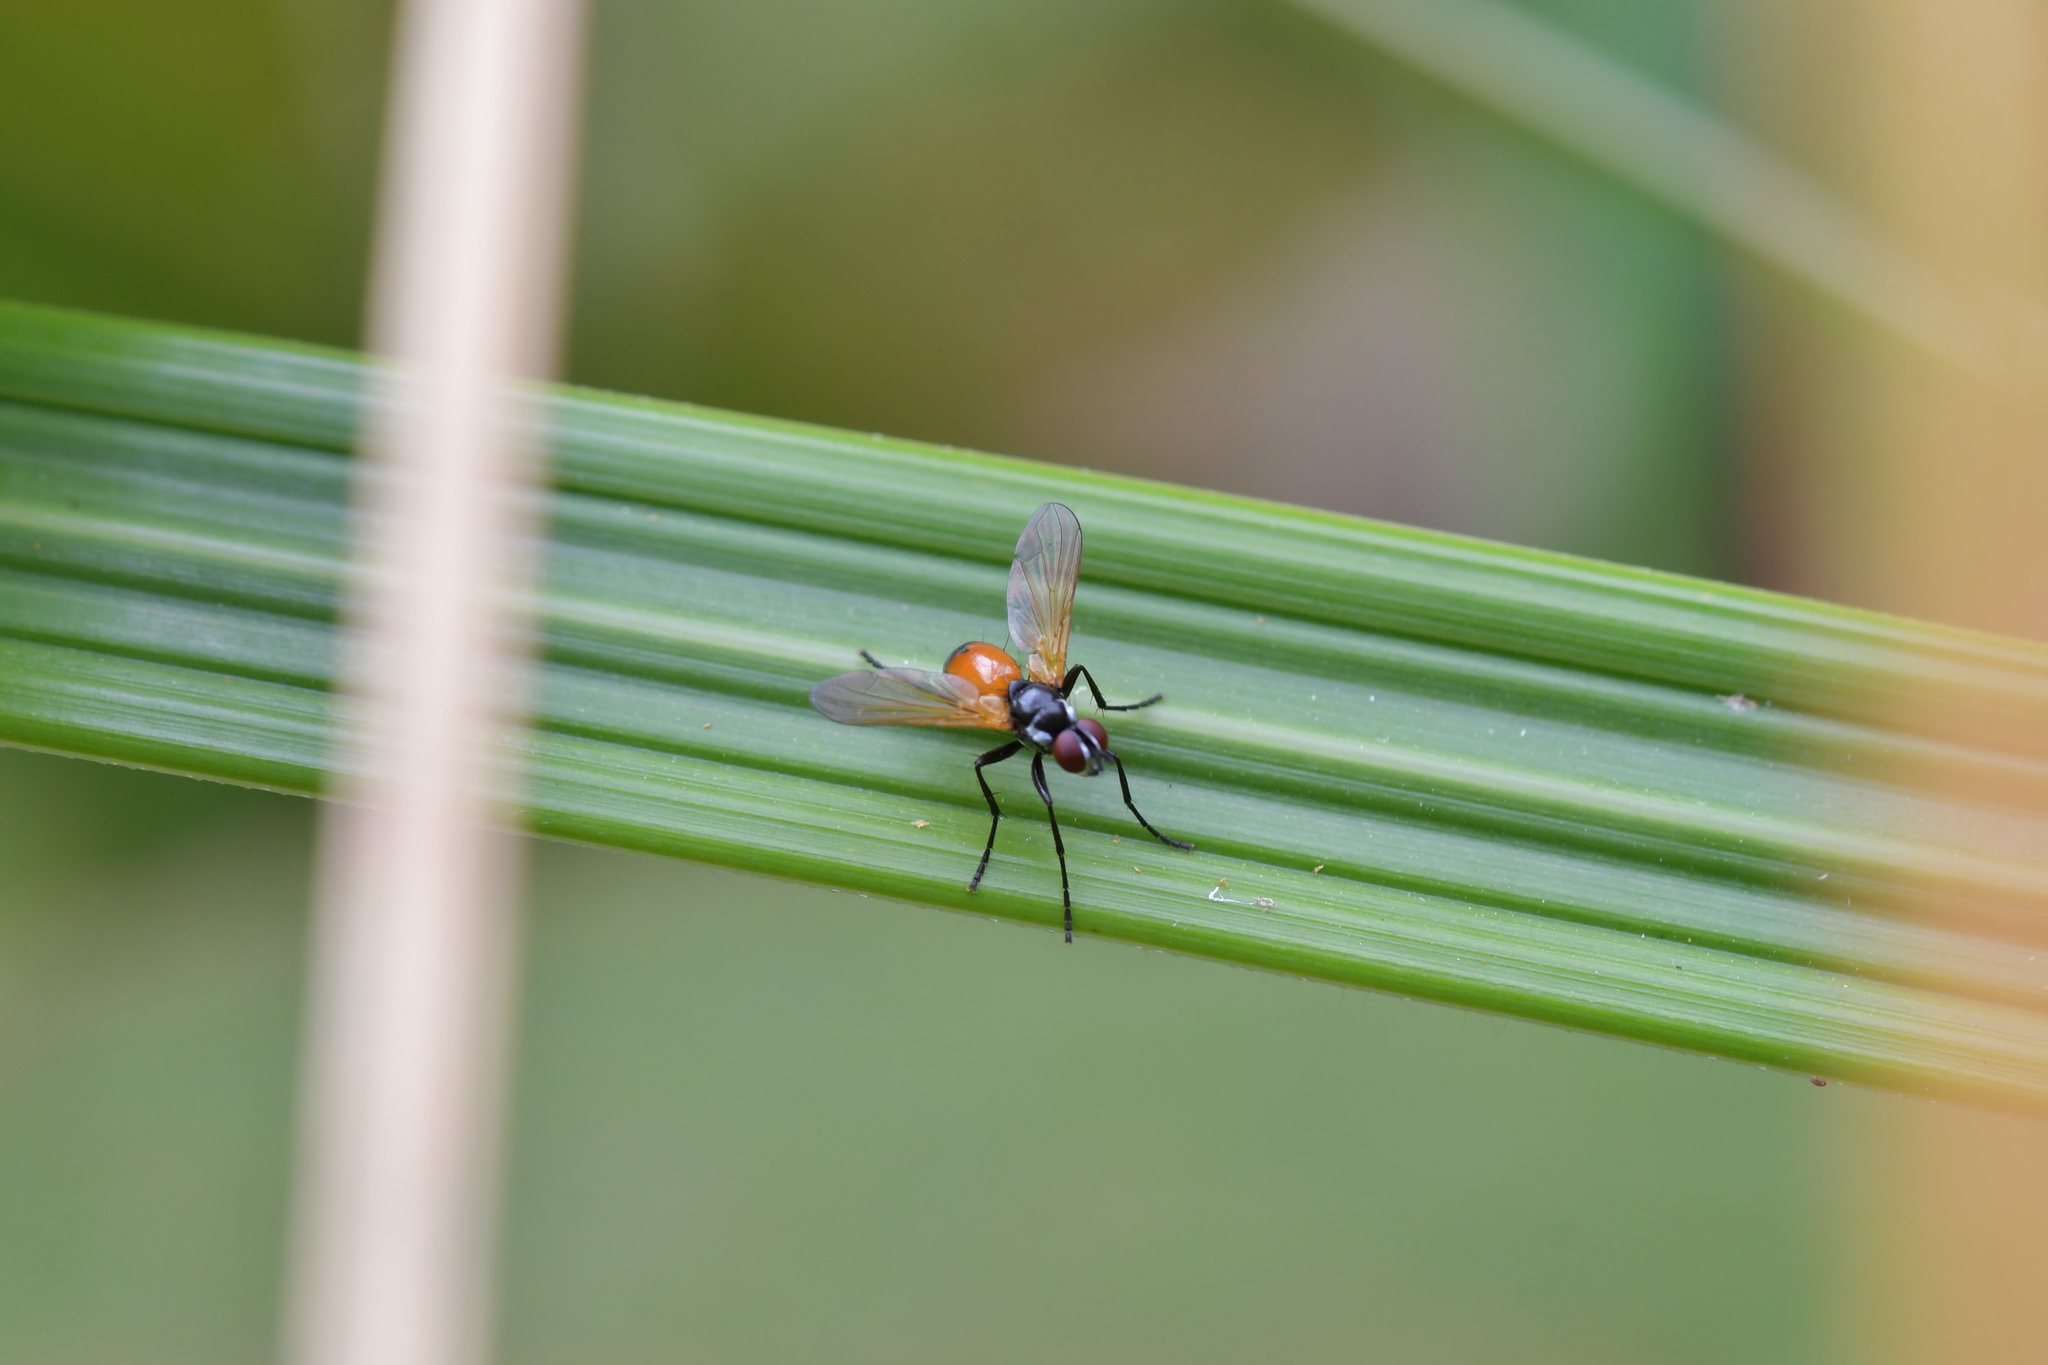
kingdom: Animalia
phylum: Arthropoda
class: Insecta
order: Diptera
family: Tachinidae
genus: Huttonobesseria
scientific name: Huttonobesseria verecunda
